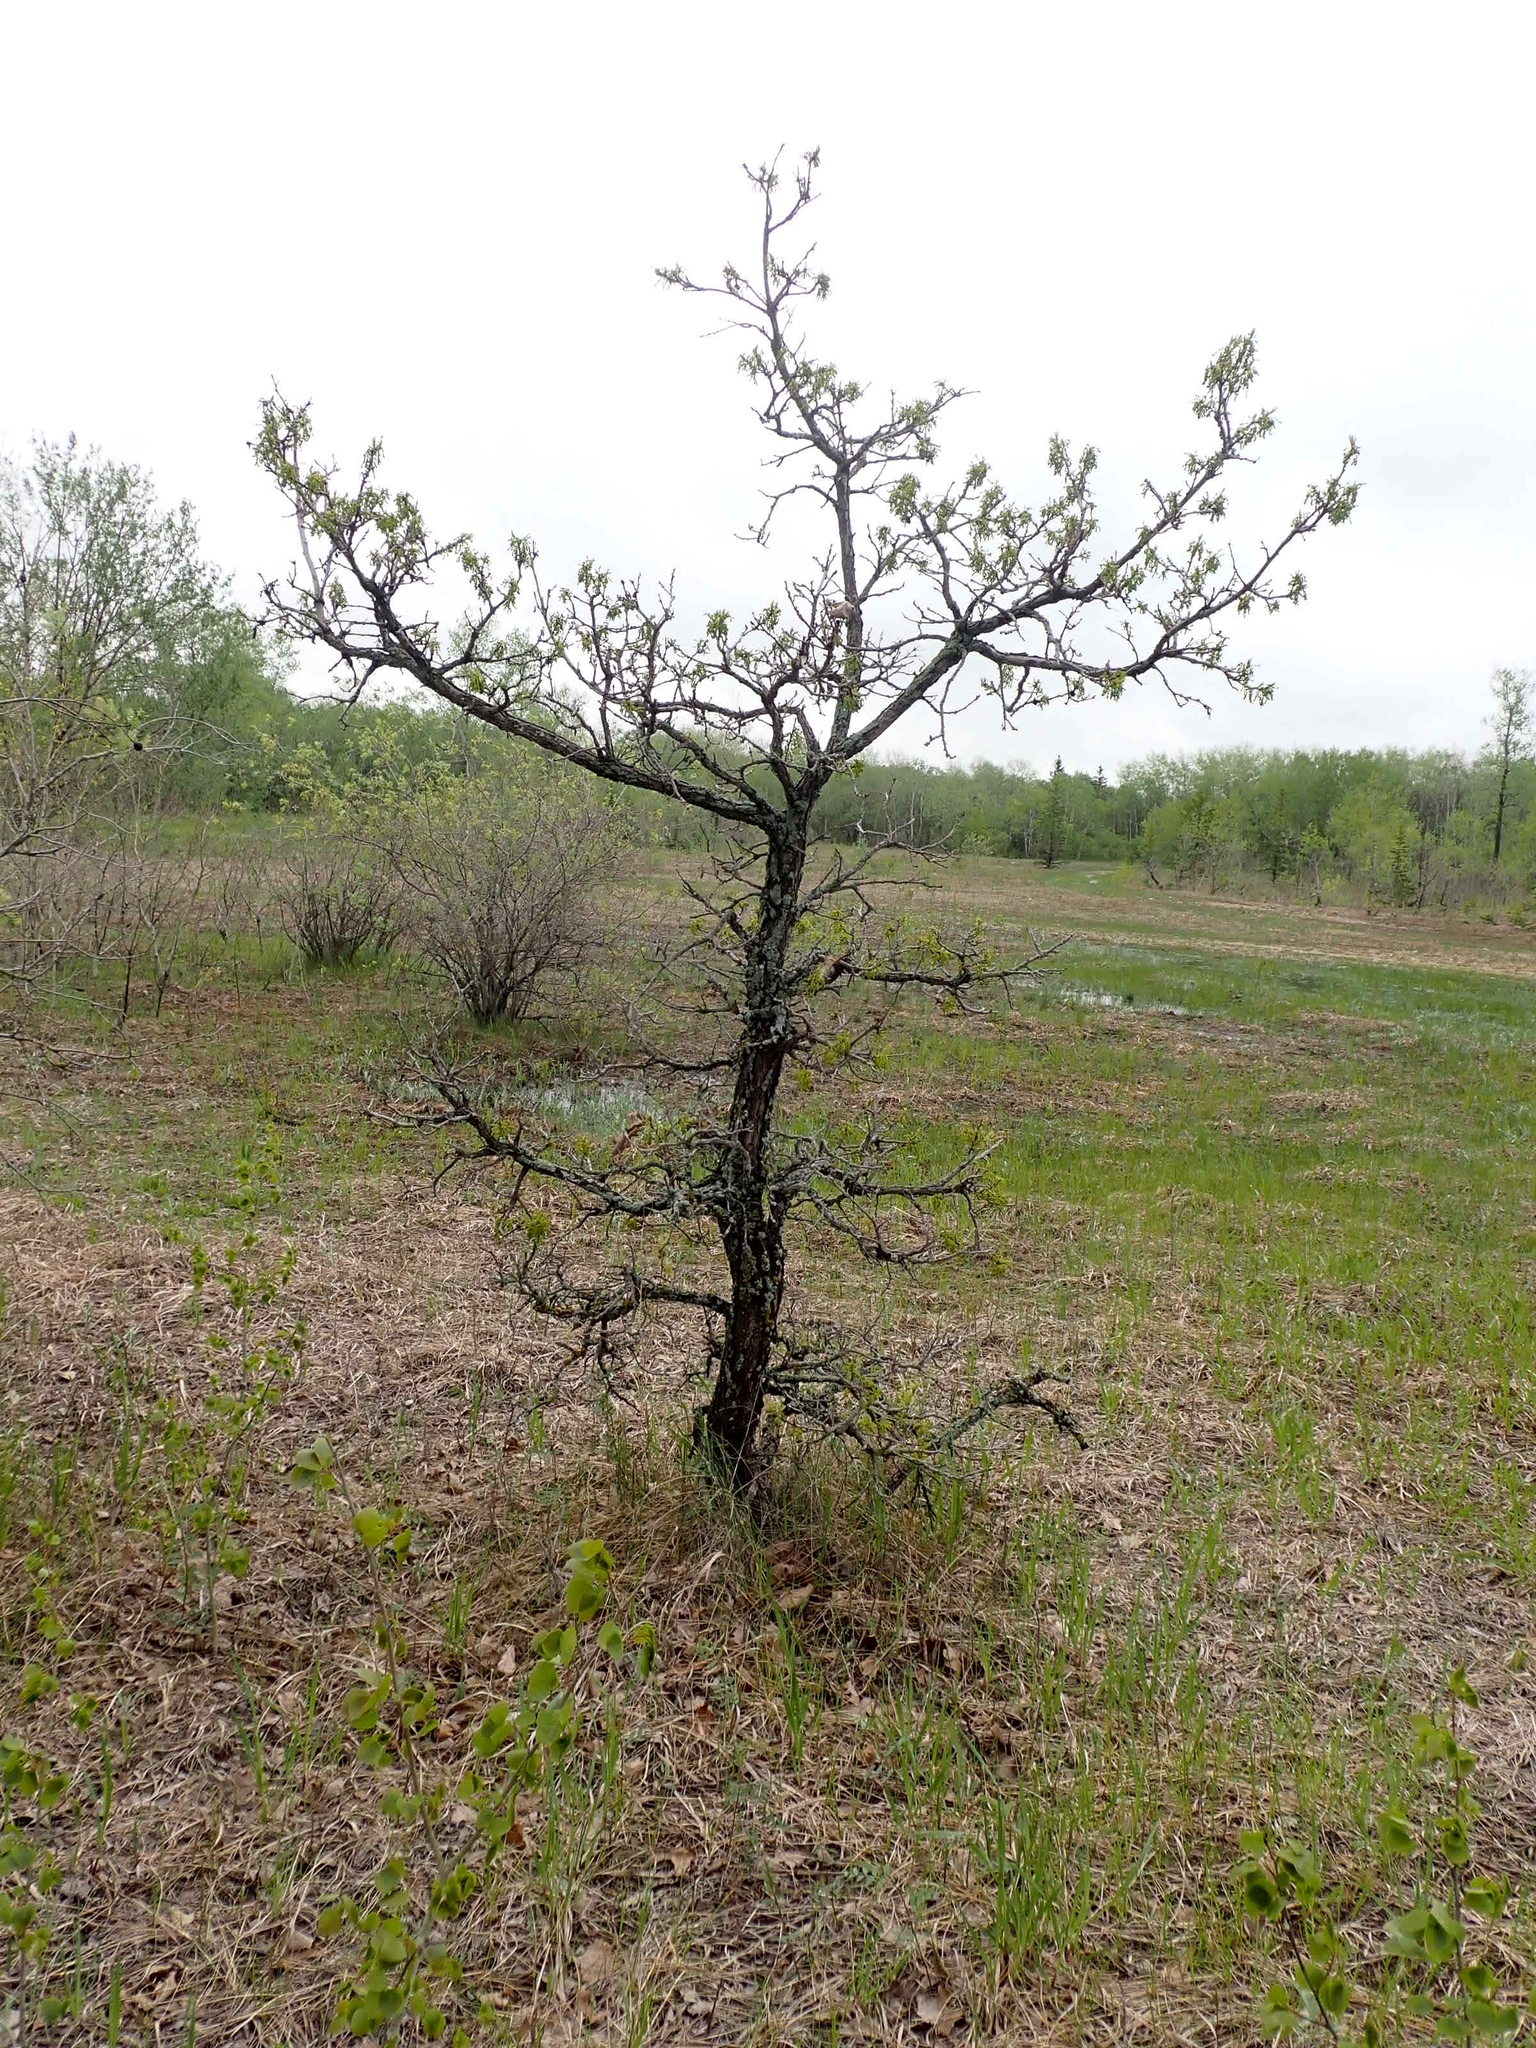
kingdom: Plantae
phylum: Tracheophyta
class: Magnoliopsida
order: Fagales
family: Fagaceae
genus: Quercus
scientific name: Quercus macrocarpa
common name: Bur oak
